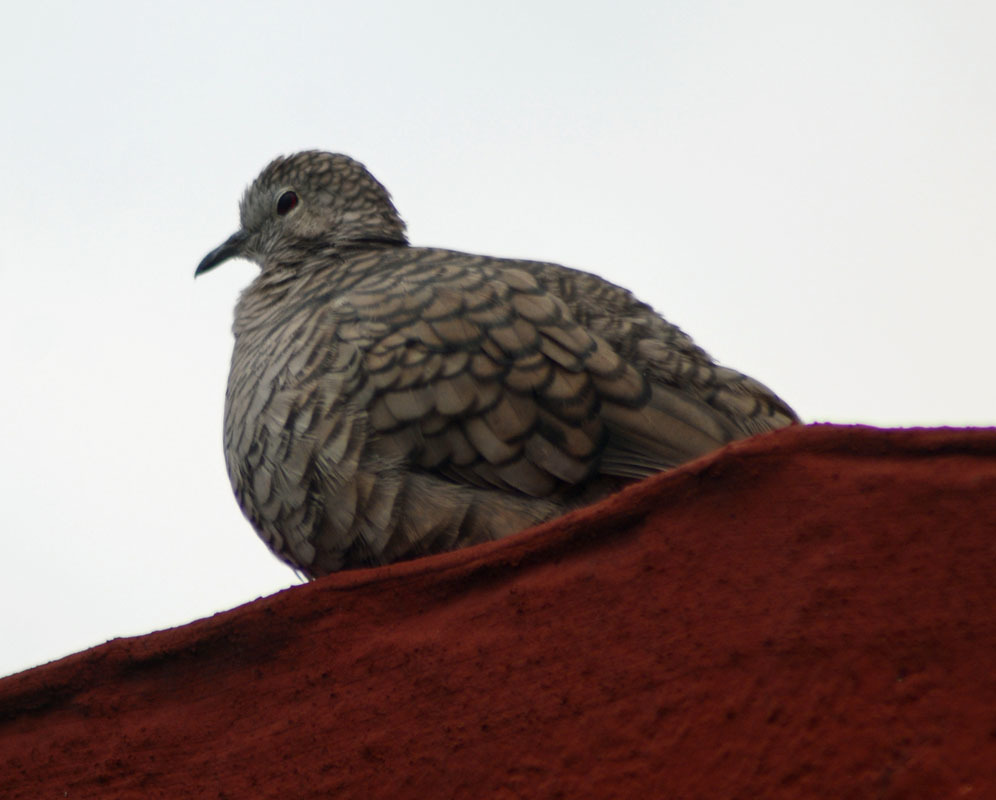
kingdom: Animalia
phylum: Chordata
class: Aves
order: Columbiformes
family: Columbidae
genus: Columbina
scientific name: Columbina inca
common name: Inca dove
